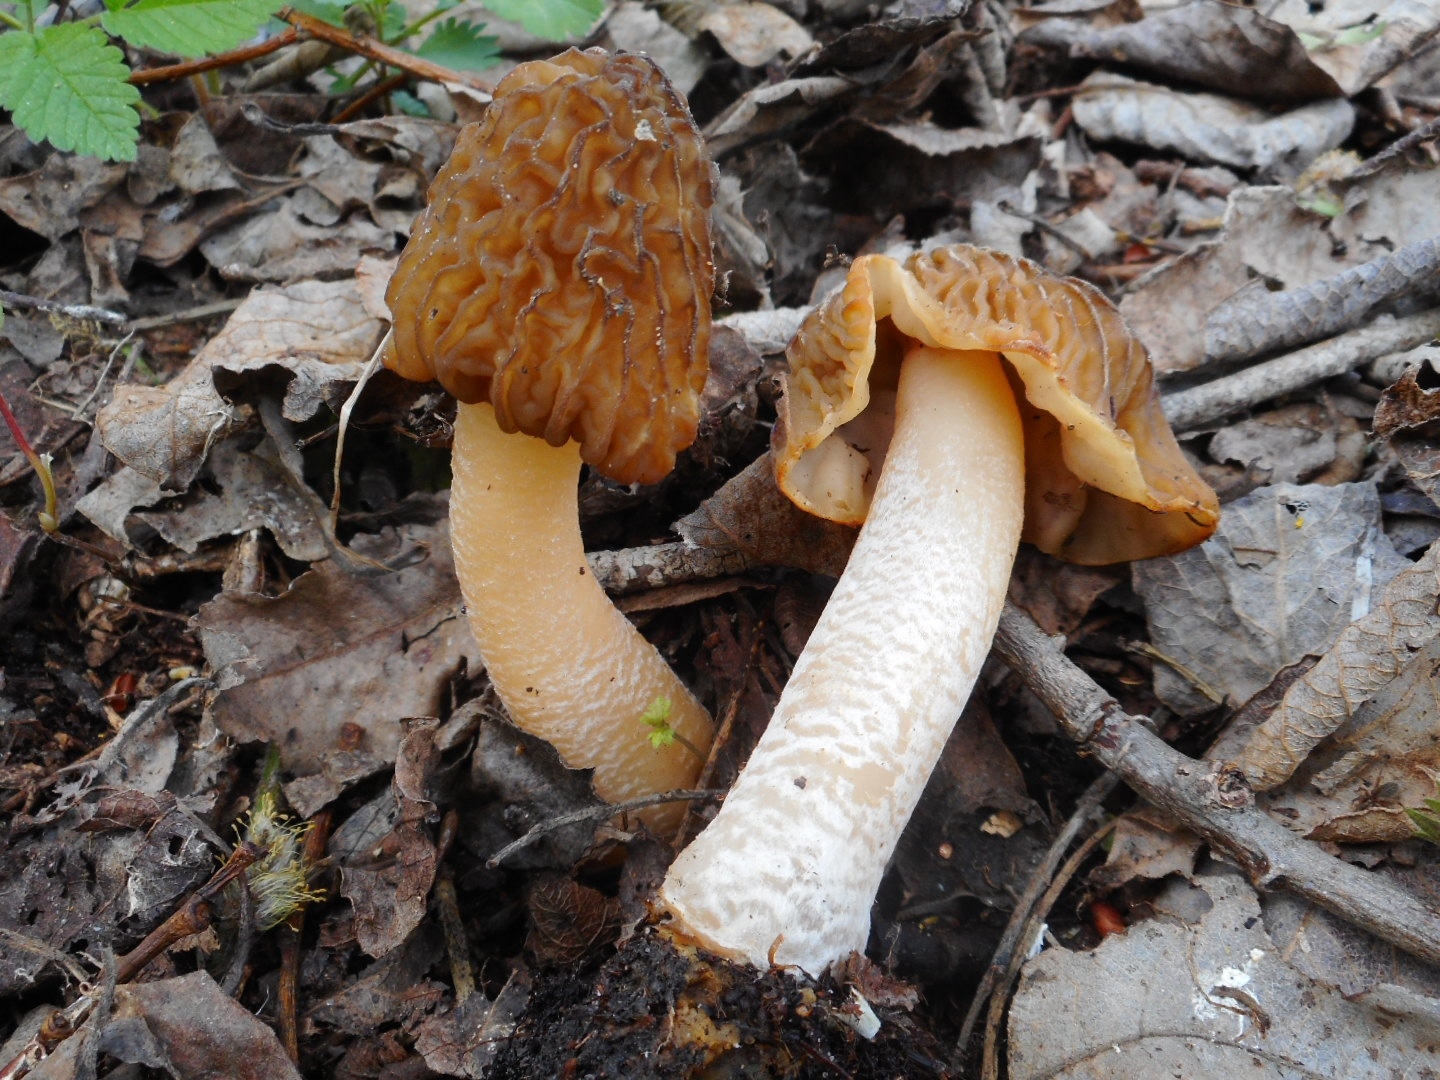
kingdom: Fungi
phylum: Ascomycota
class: Pezizomycetes
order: Pezizales
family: Morchellaceae
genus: Verpa
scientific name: Verpa bohemica
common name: Wrinkled thimble morel
